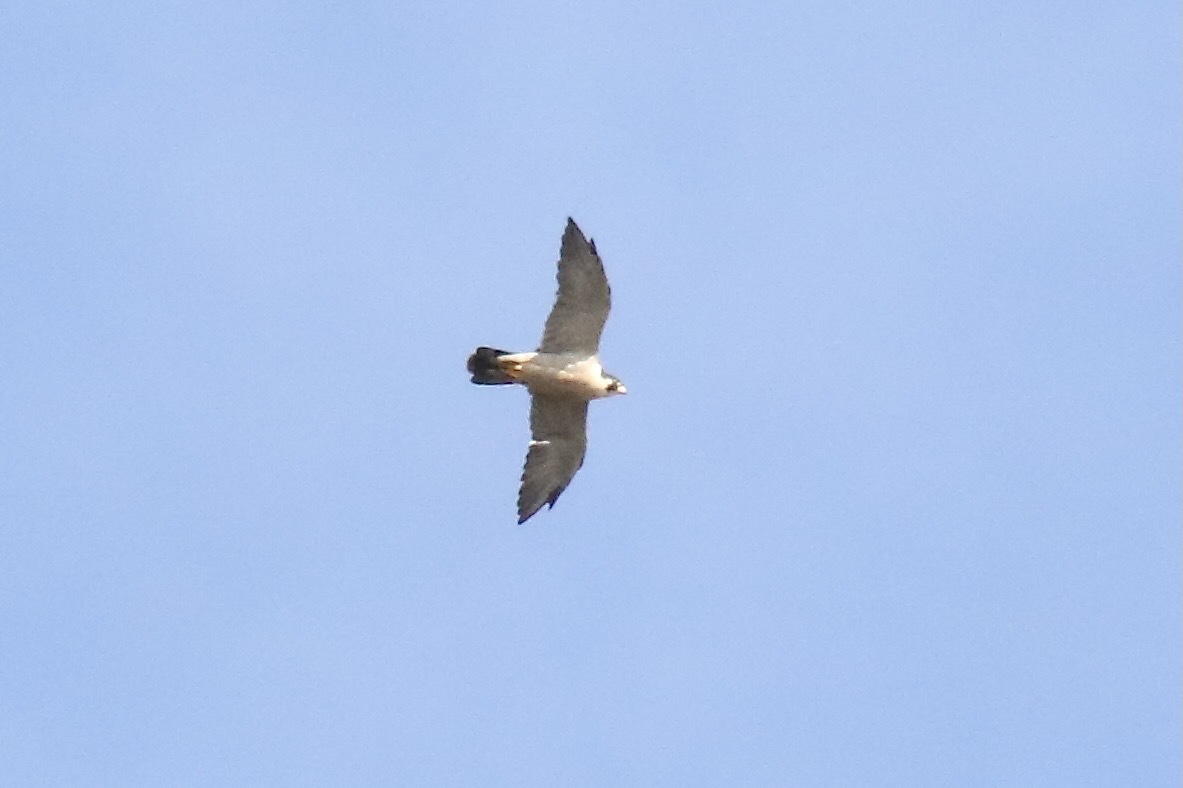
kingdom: Animalia
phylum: Chordata
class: Aves
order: Falconiformes
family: Falconidae
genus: Falco
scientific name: Falco peregrinus
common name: Peregrine falcon
